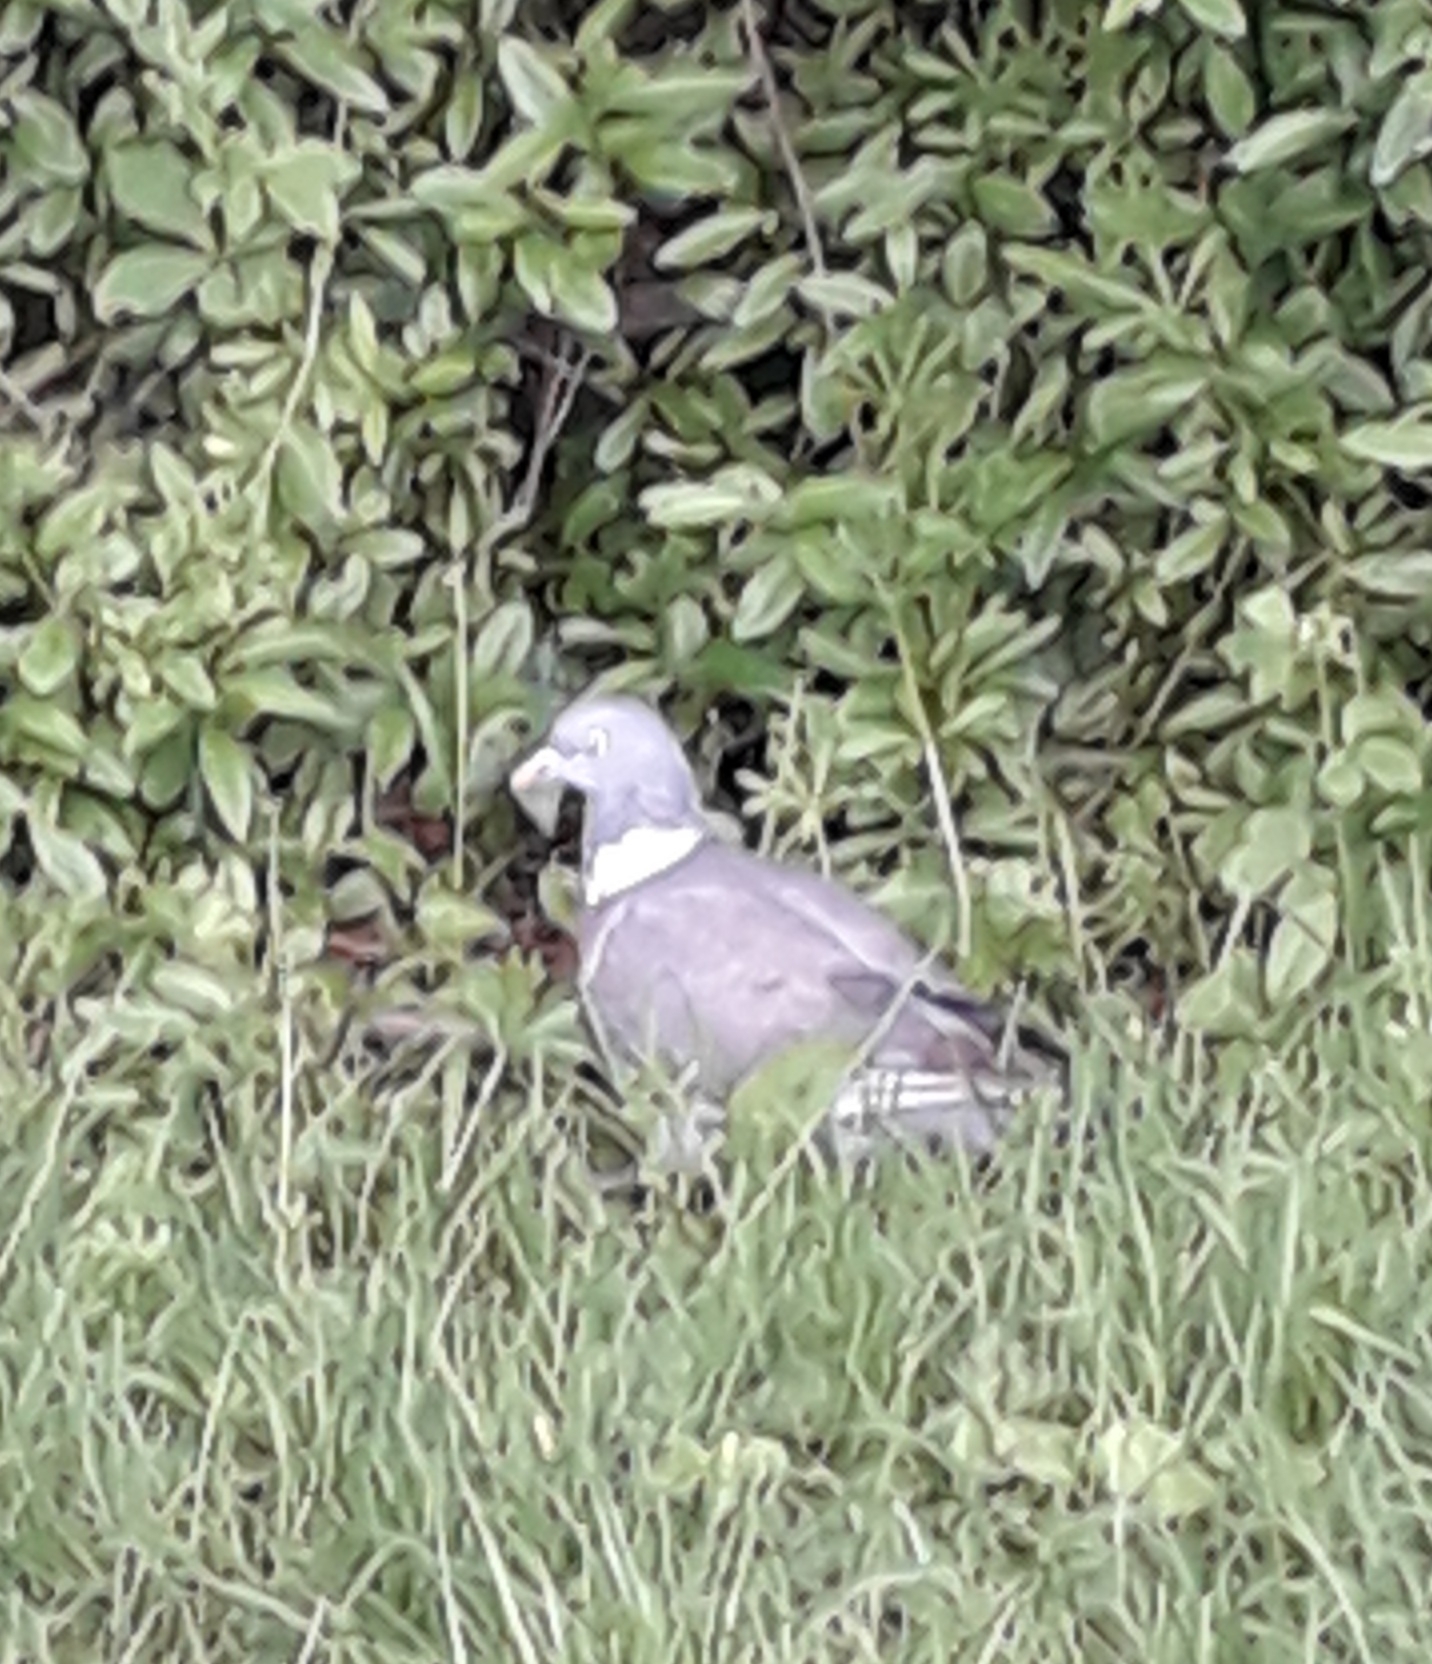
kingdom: Animalia
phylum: Chordata
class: Aves
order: Columbiformes
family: Columbidae
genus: Columba
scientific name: Columba palumbus
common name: Common wood pigeon
